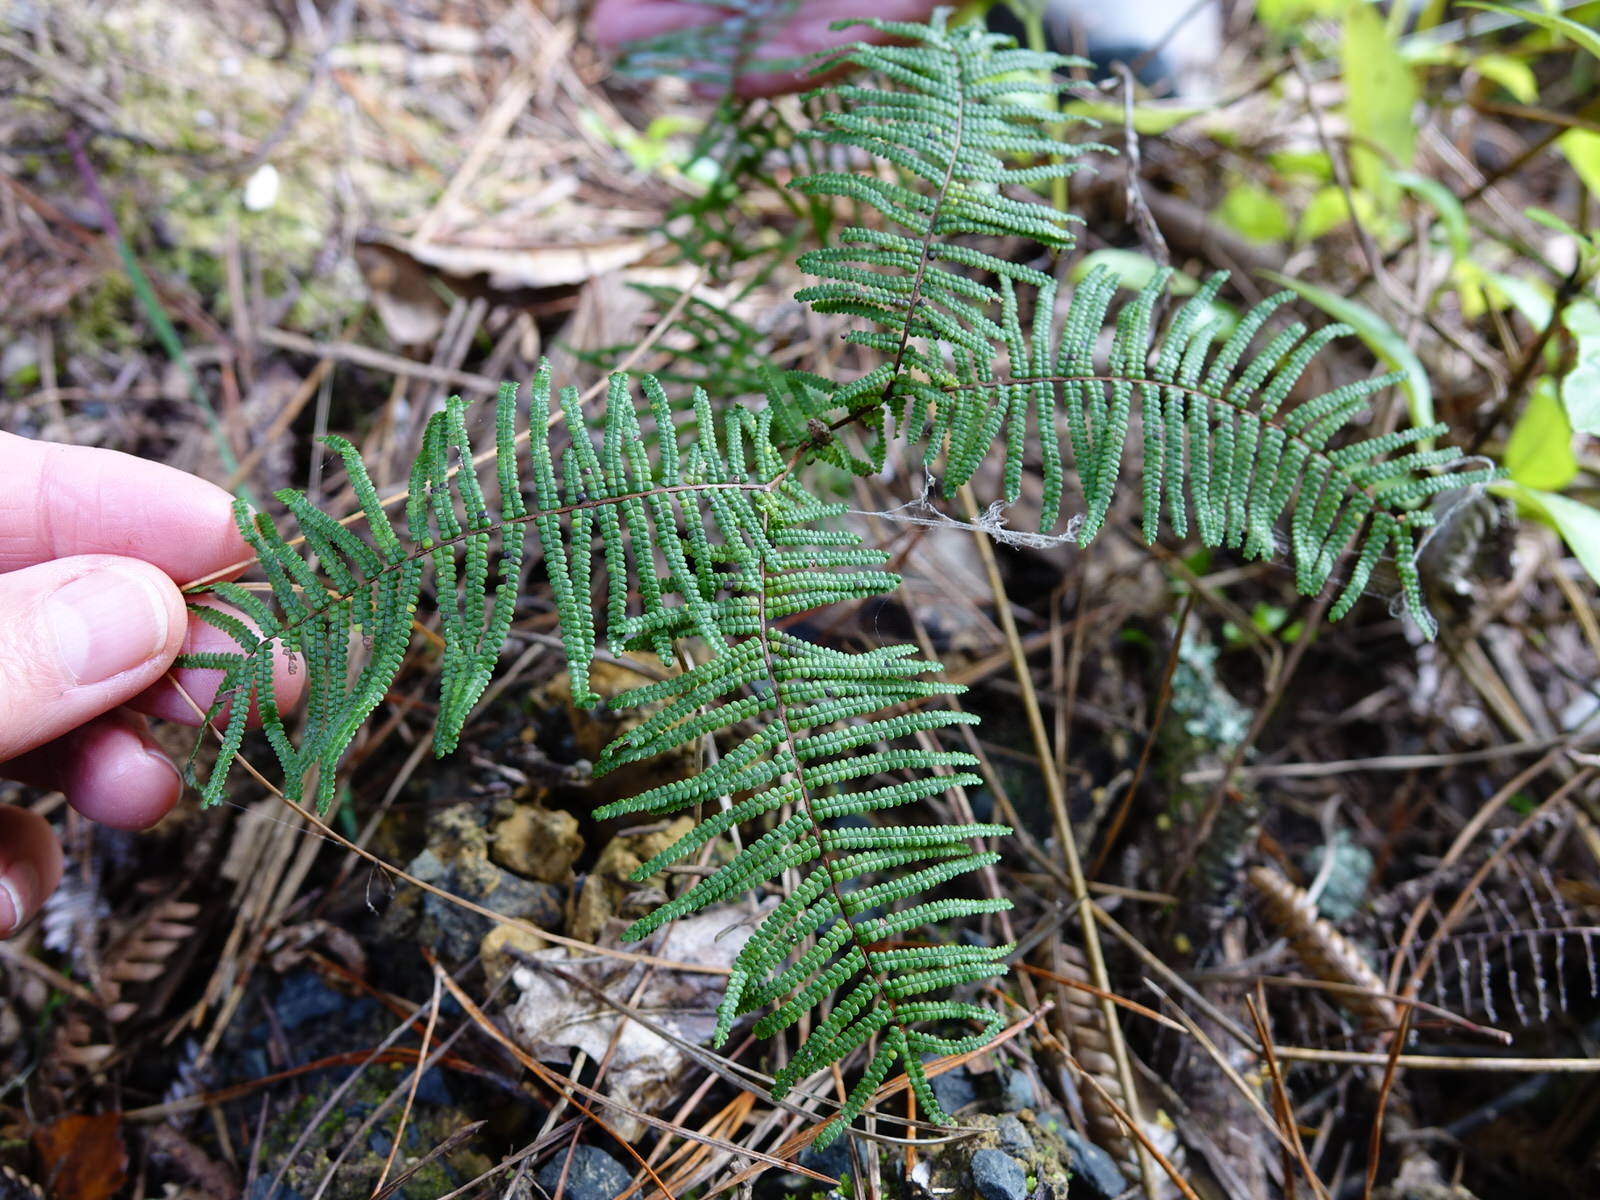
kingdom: Plantae
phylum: Tracheophyta
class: Polypodiopsida
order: Gleicheniales
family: Gleicheniaceae
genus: Gleichenia
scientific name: Gleichenia punctulata
